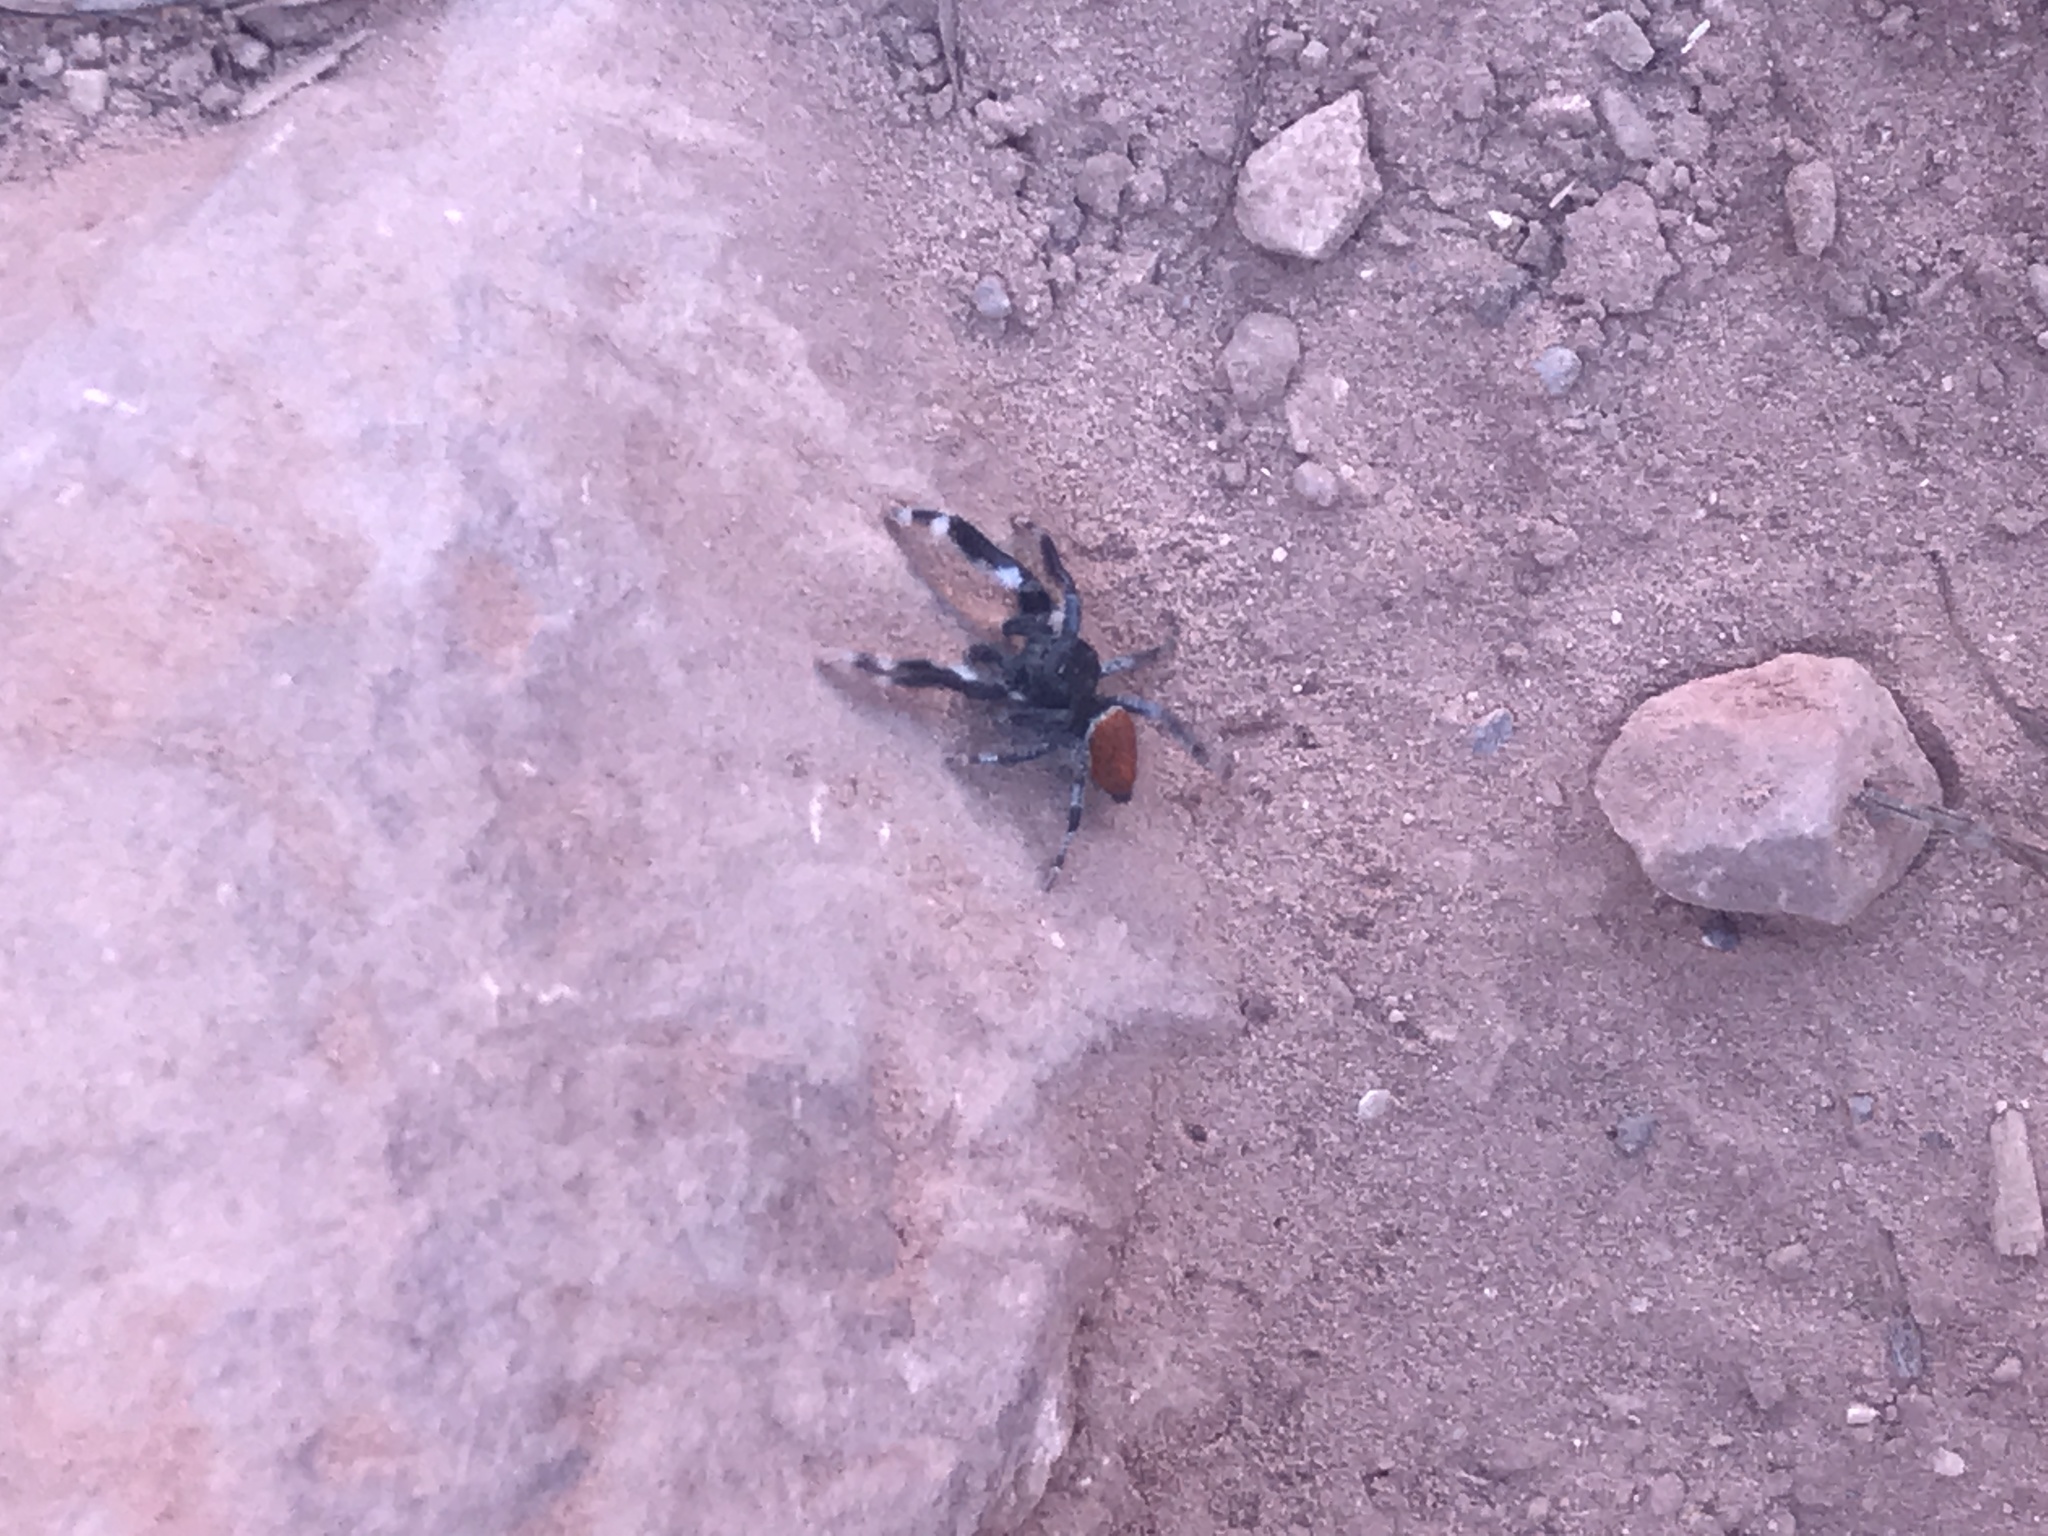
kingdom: Animalia
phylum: Arthropoda
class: Arachnida
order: Araneae
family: Salticidae
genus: Phidippus
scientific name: Phidippus carneus
